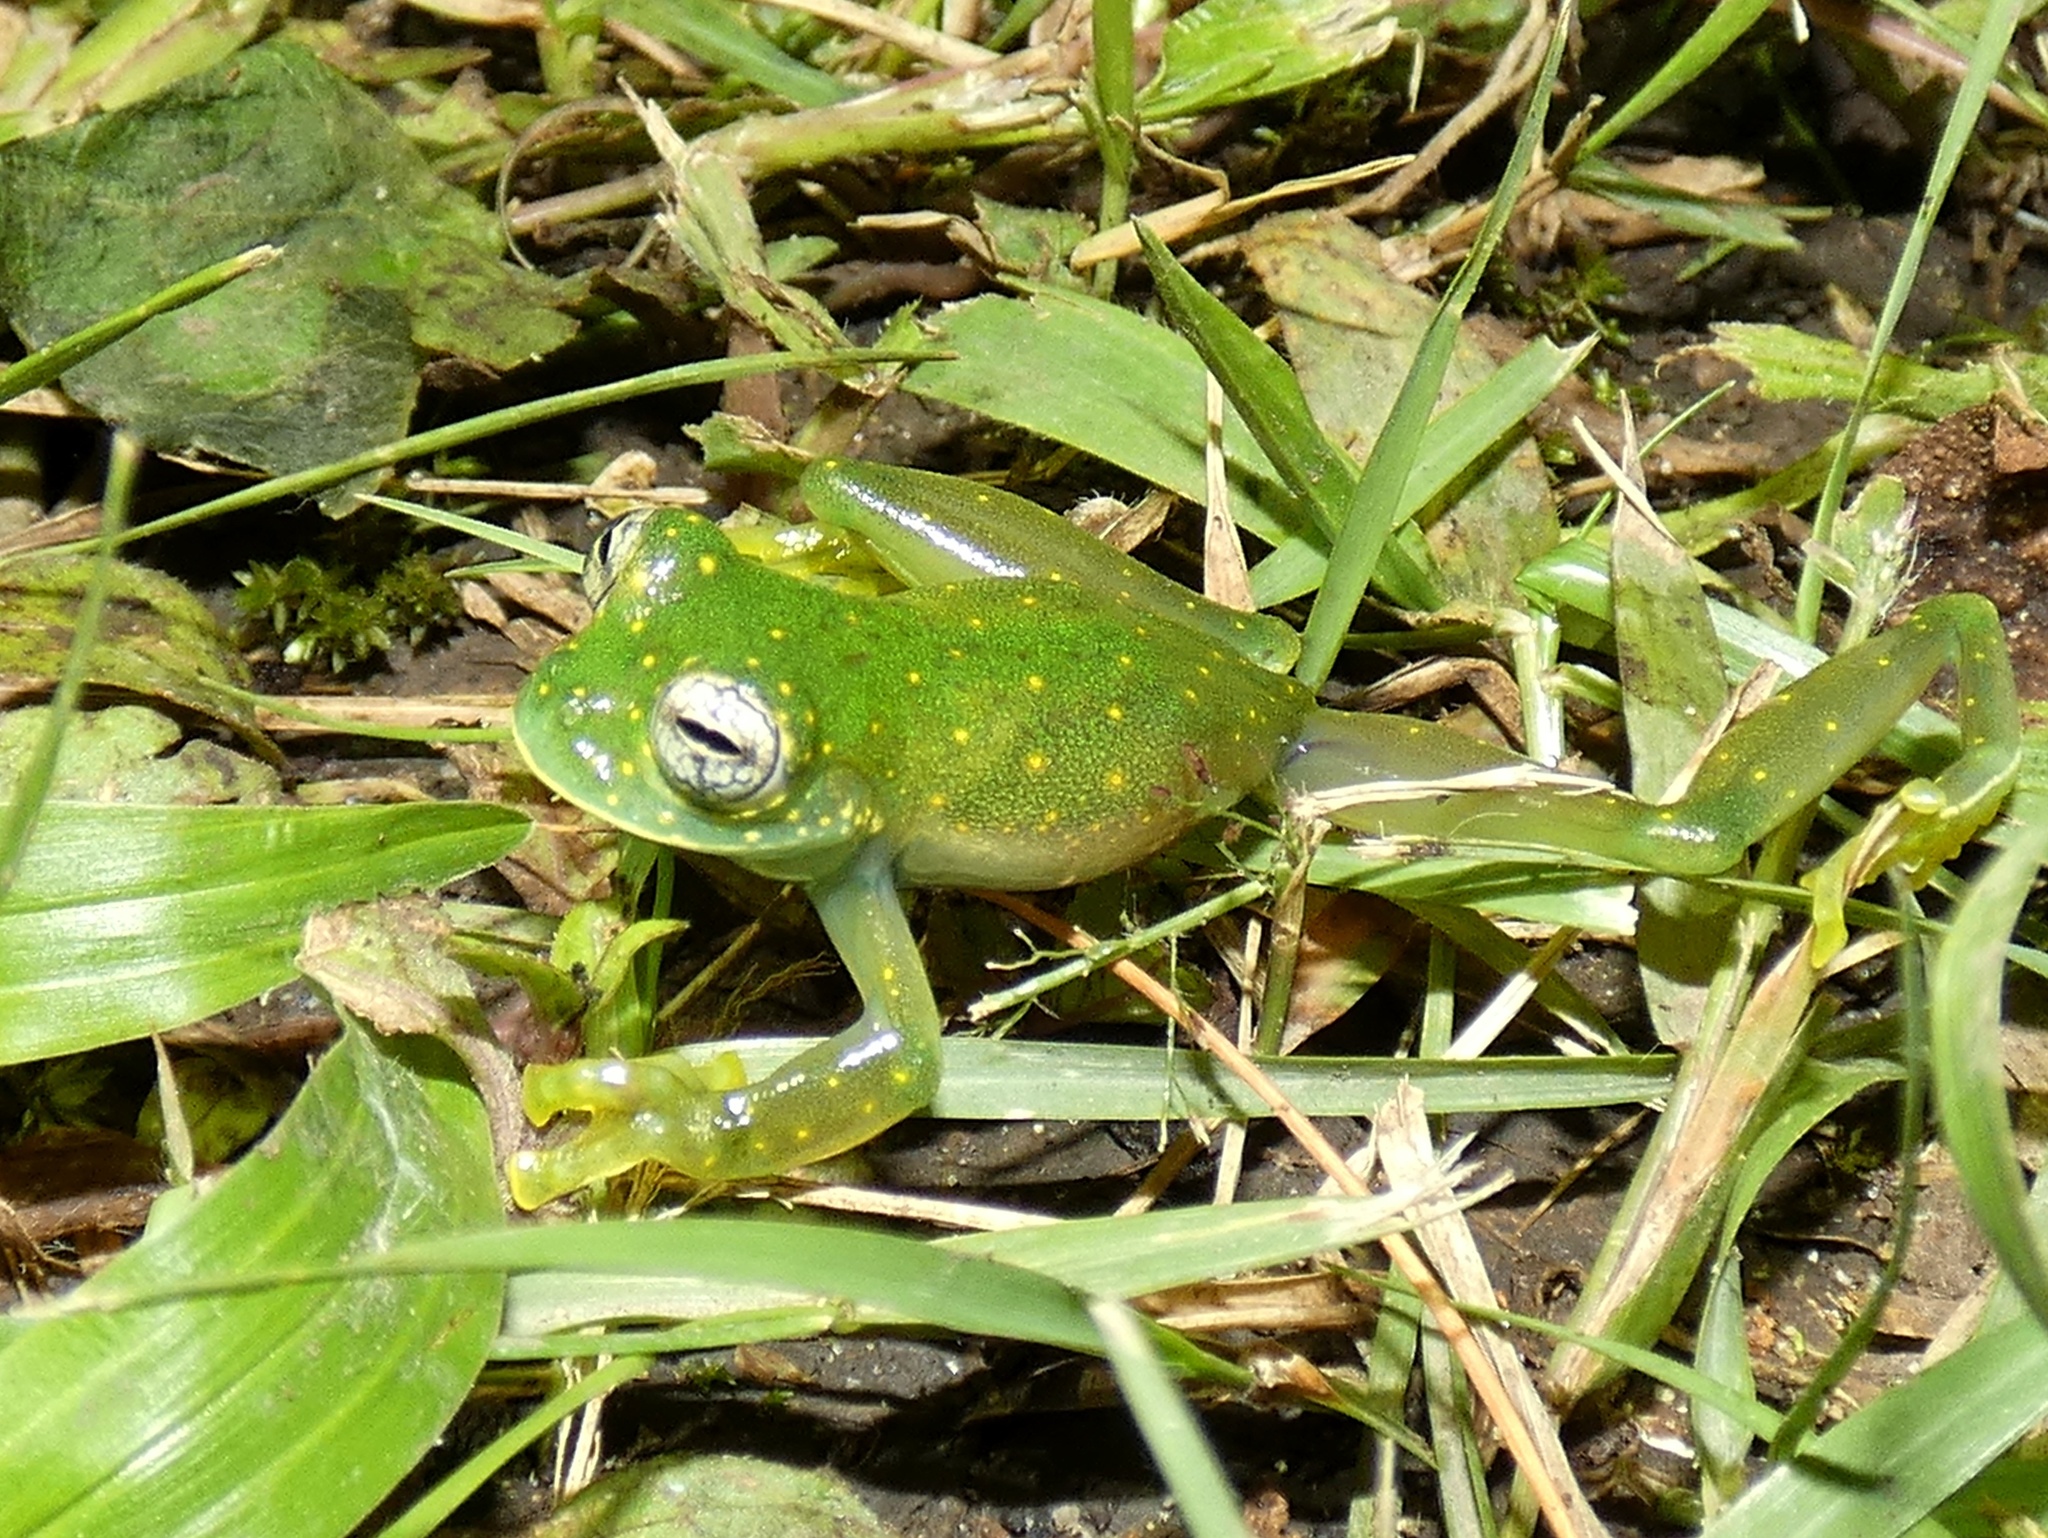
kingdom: Animalia
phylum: Chordata
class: Amphibia
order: Anura
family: Centrolenidae
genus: Sachatamia
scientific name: Sachatamia albomaculata
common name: Rana de cristal de cascada
